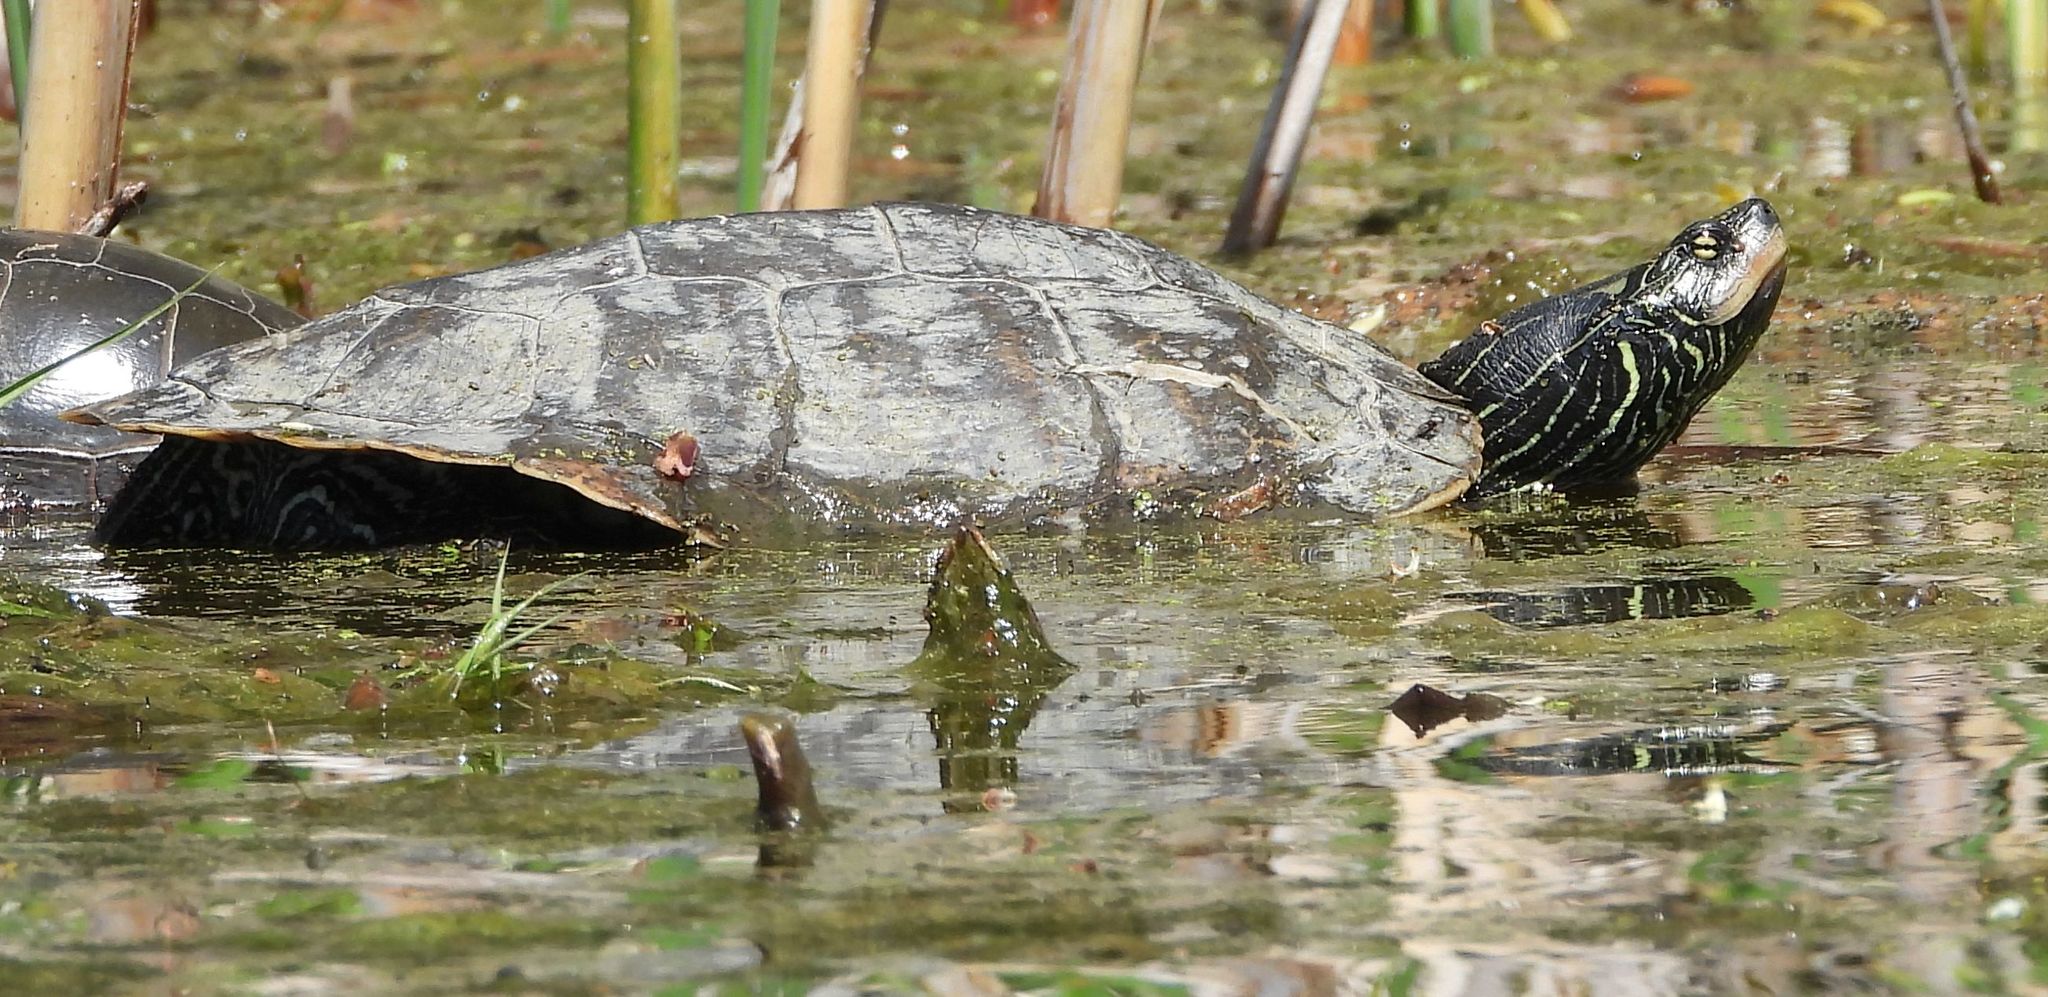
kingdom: Animalia
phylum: Chordata
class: Testudines
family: Emydidae
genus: Graptemys
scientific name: Graptemys geographica
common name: Common map turtle
